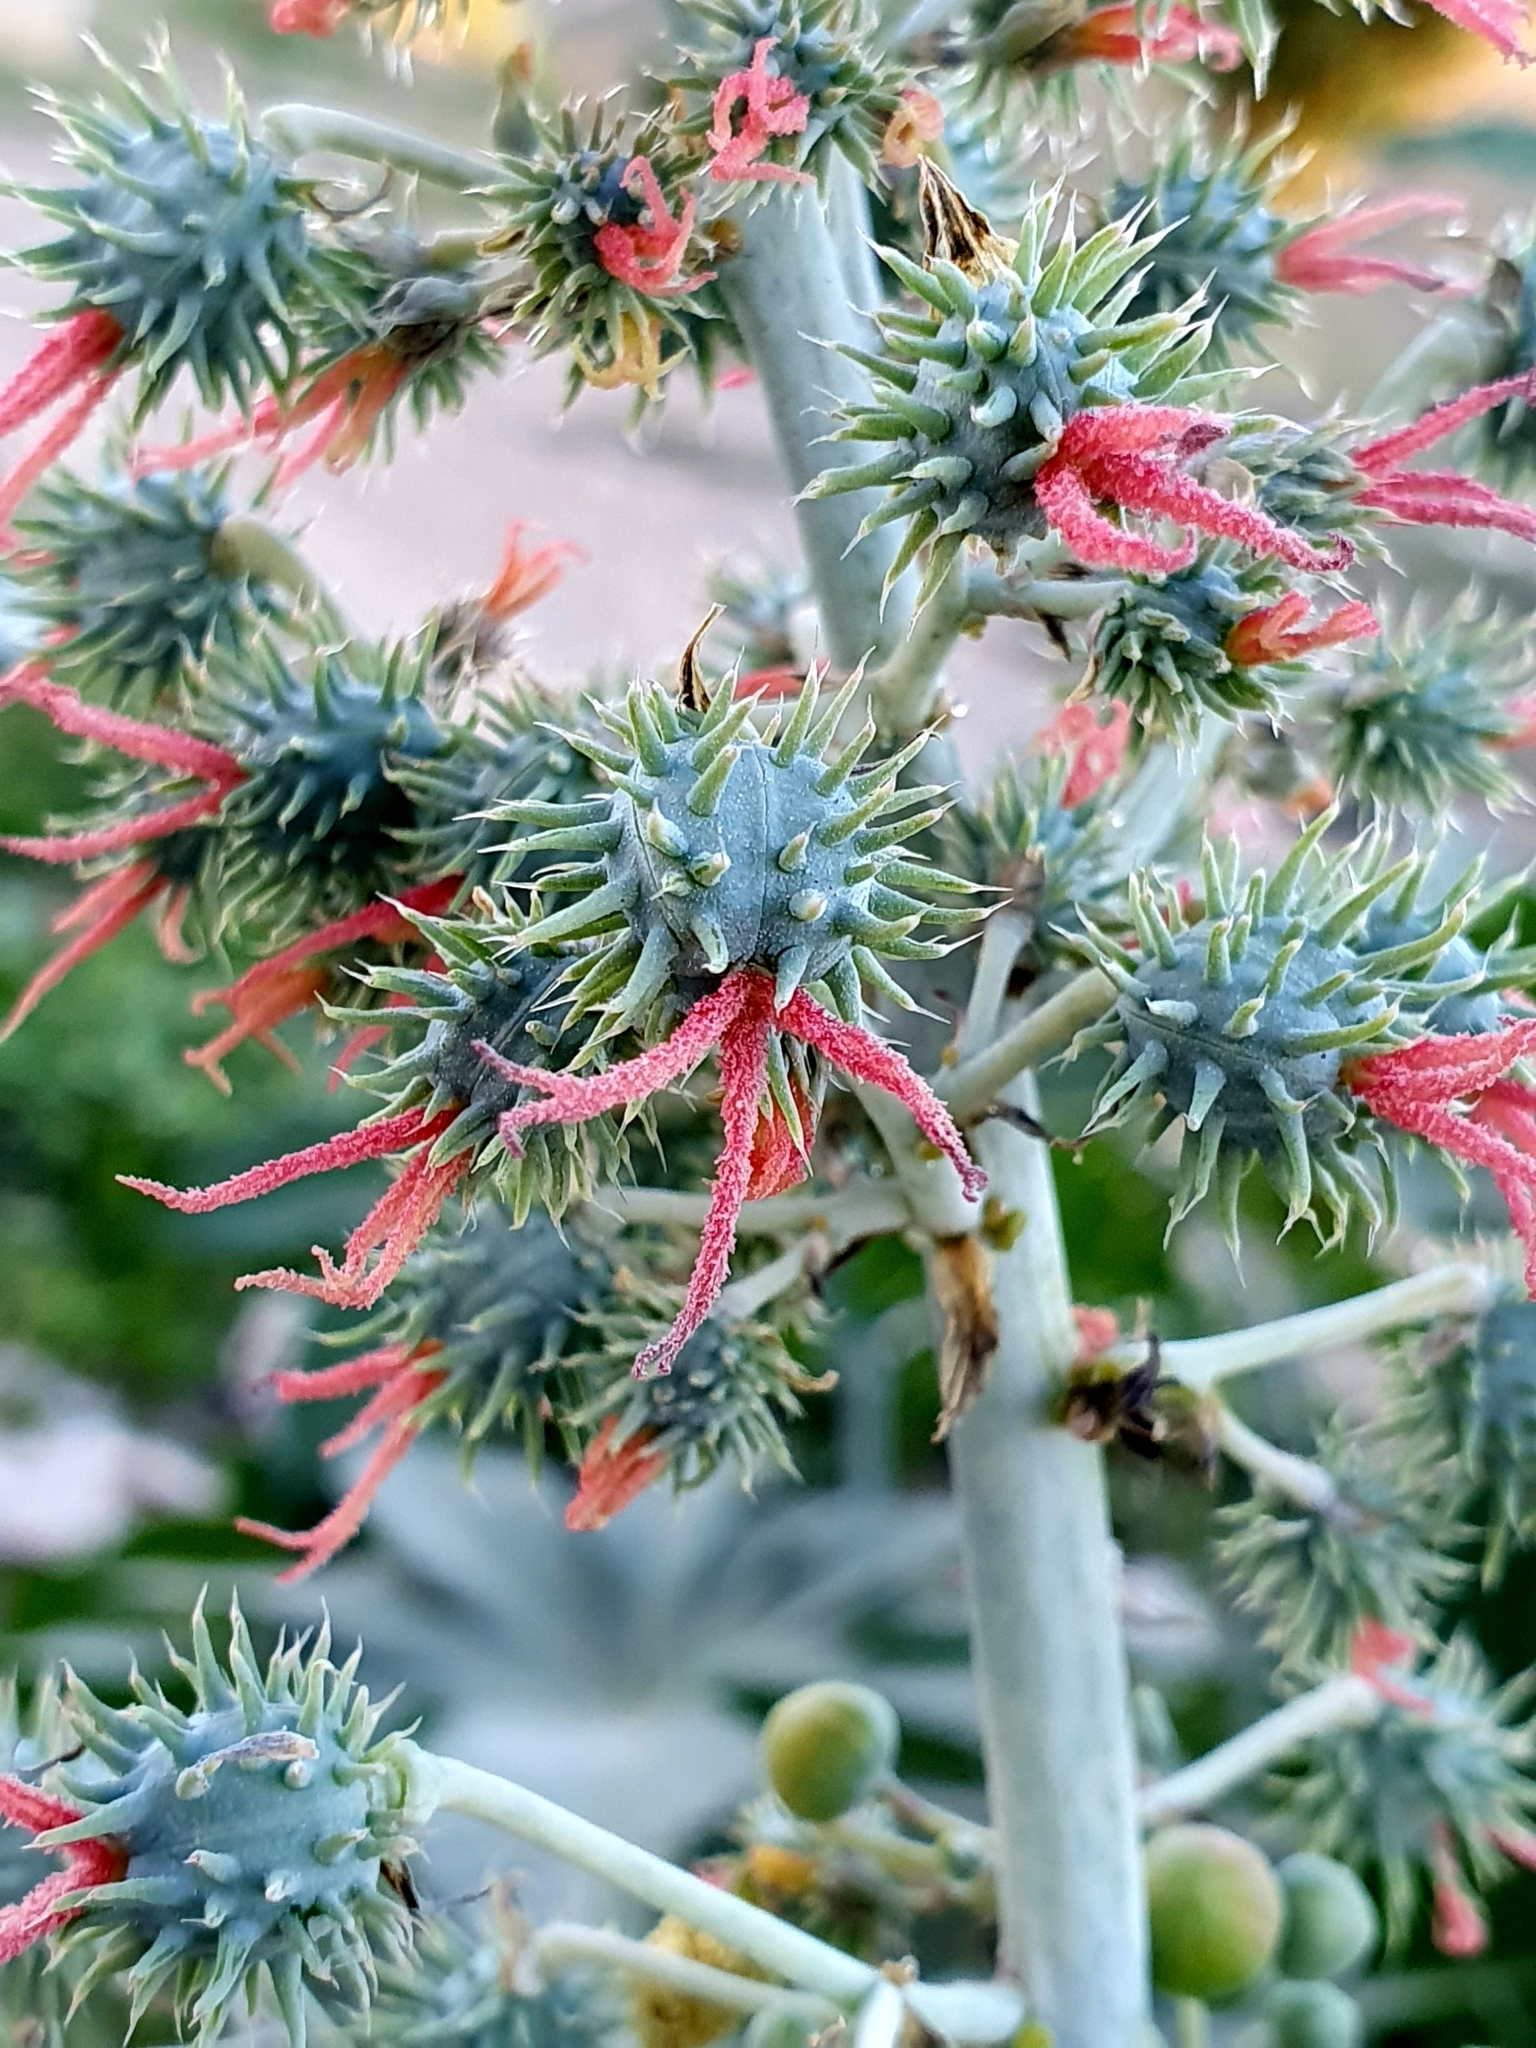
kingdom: Plantae
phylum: Tracheophyta
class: Magnoliopsida
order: Malpighiales
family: Euphorbiaceae
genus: Ricinus
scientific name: Ricinus communis
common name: Castor-oil-plant
